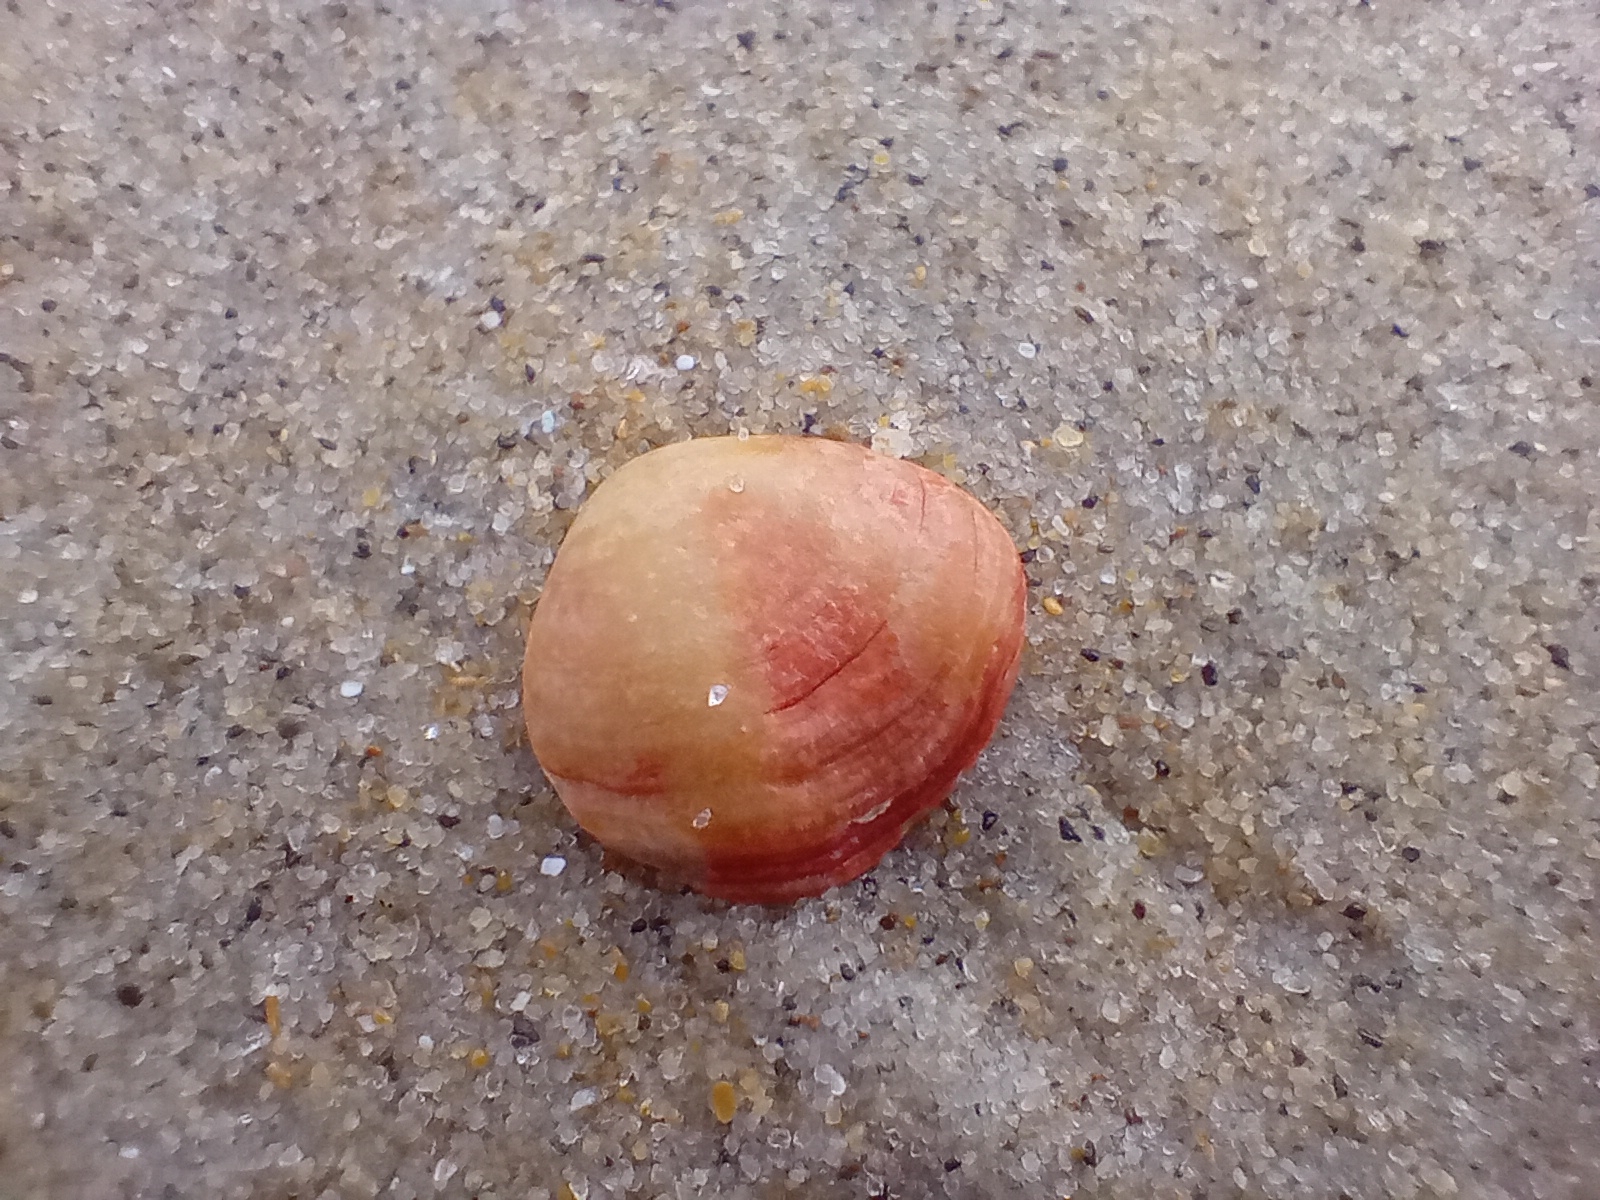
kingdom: Animalia
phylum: Brachiopoda
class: Rhynchonellata
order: Terebratulida
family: Terebratellidae
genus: Calloria
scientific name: Calloria inconspicua
